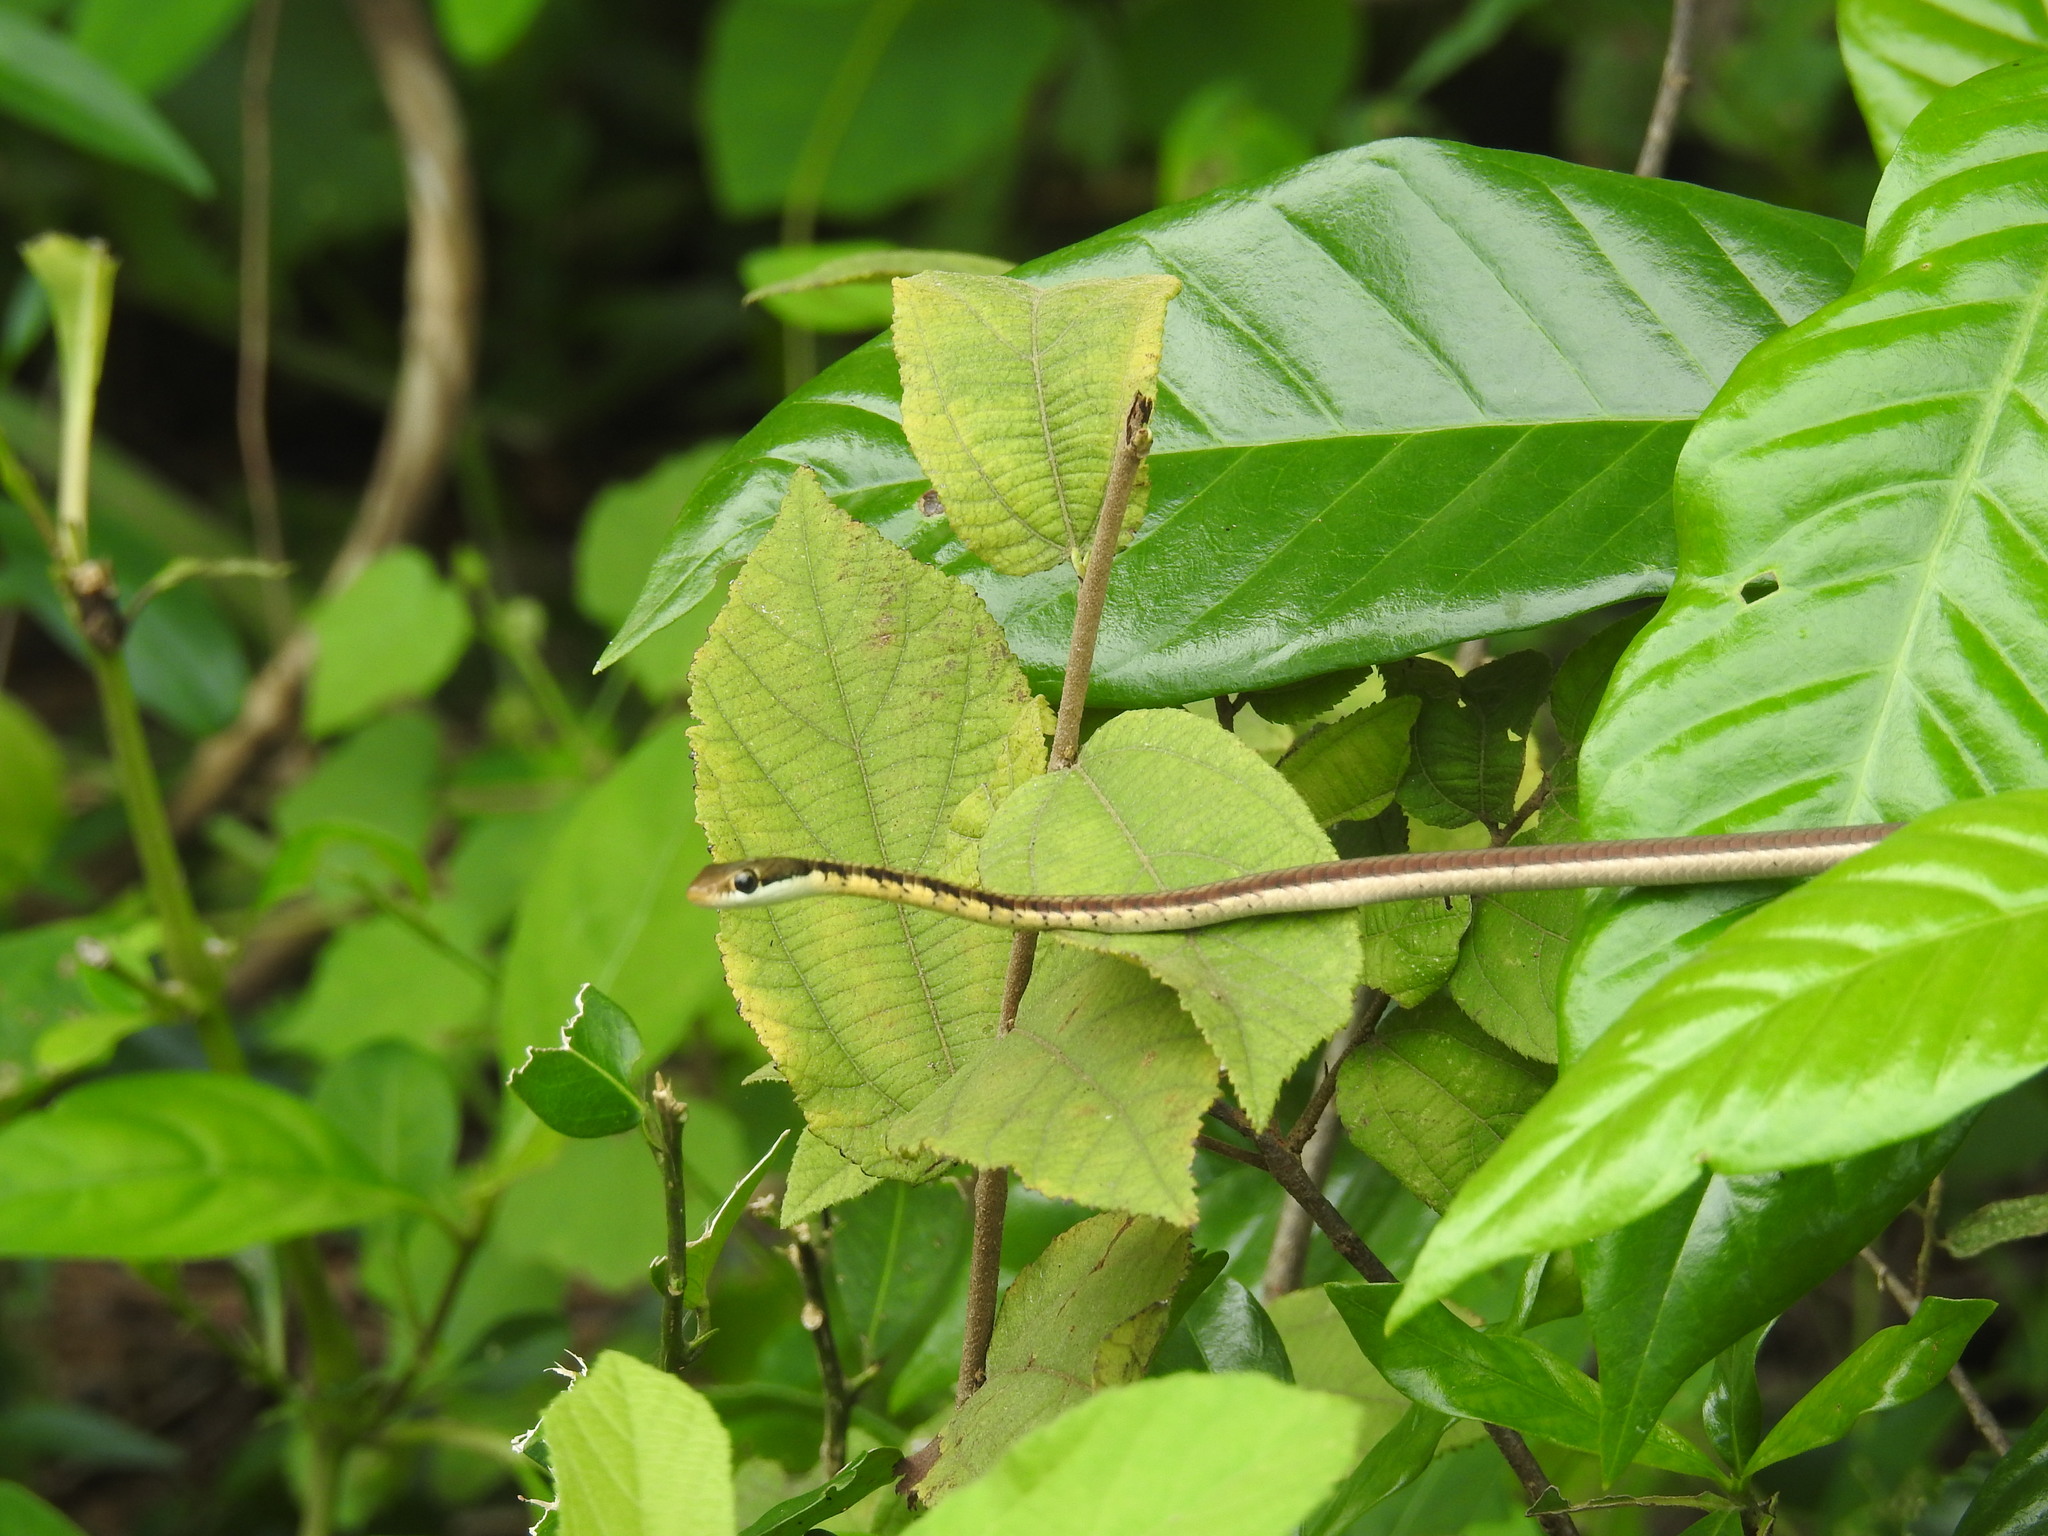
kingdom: Animalia
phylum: Chordata
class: Squamata
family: Colubridae
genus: Dendrelaphis
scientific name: Dendrelaphis tristis
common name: Daudin's bronzeback
